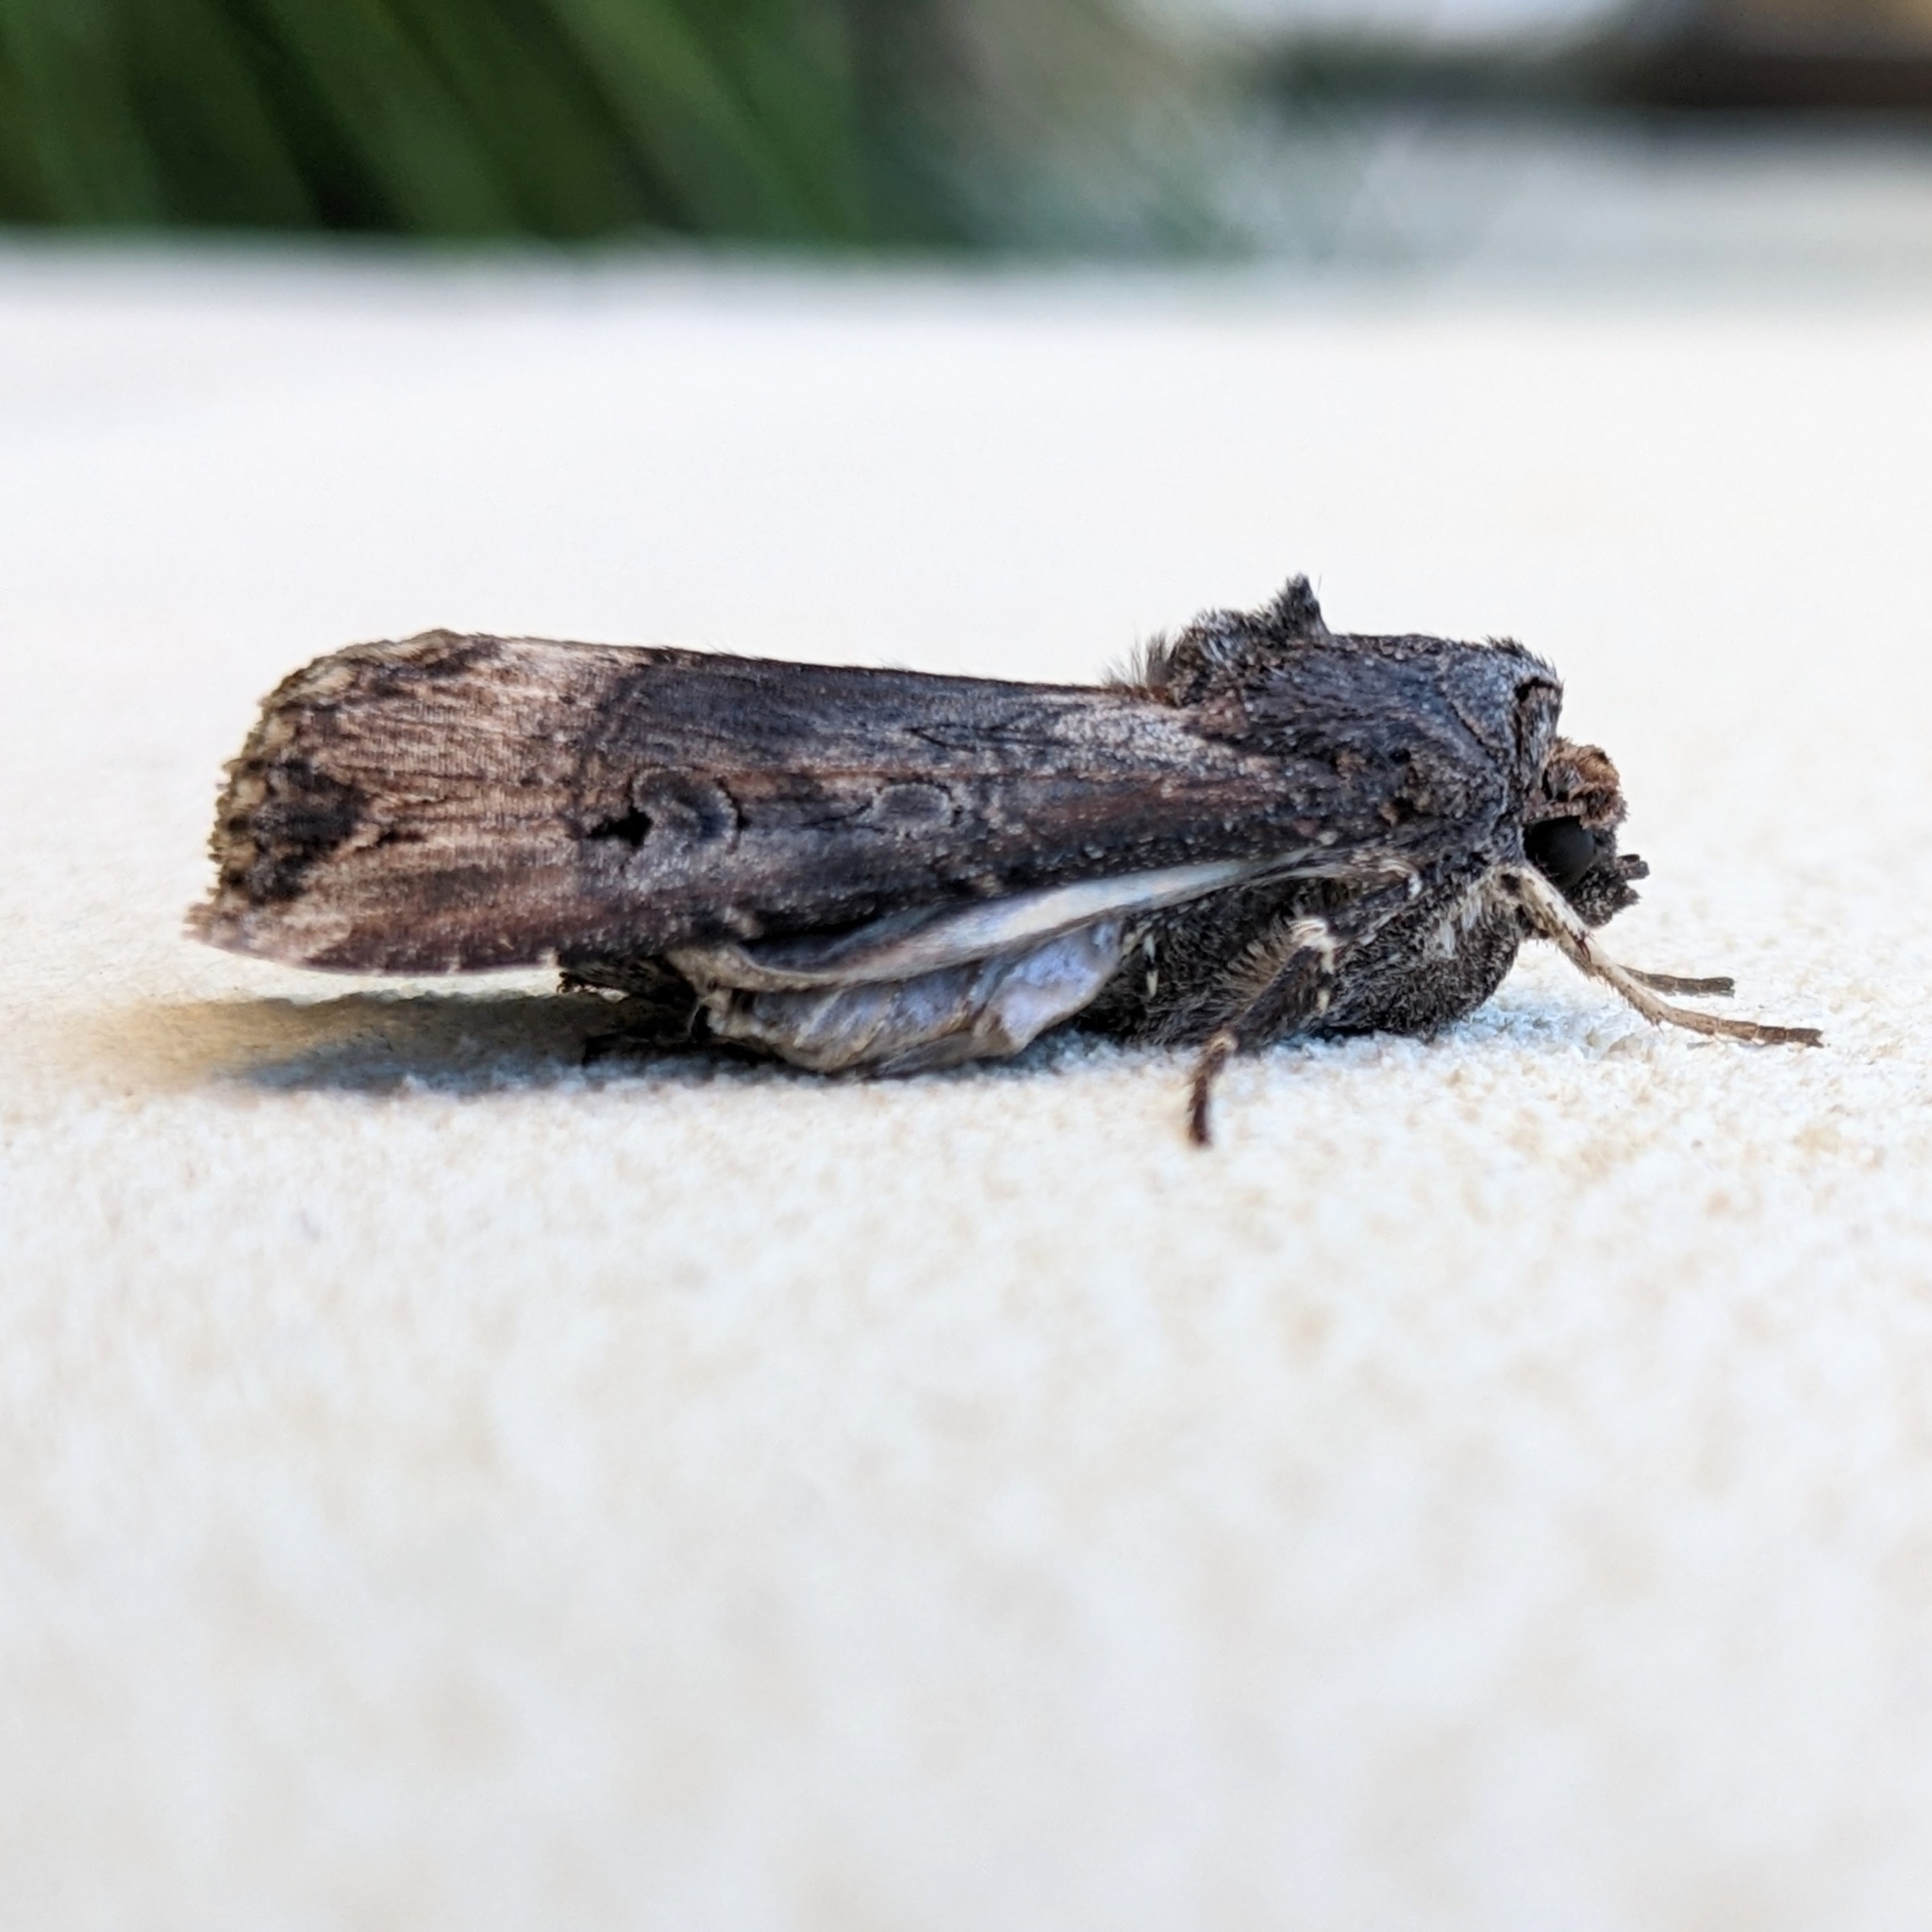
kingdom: Animalia
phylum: Arthropoda
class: Insecta
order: Lepidoptera
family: Noctuidae
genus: Agrotis
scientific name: Agrotis ipsilon
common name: Dark sword-grass
